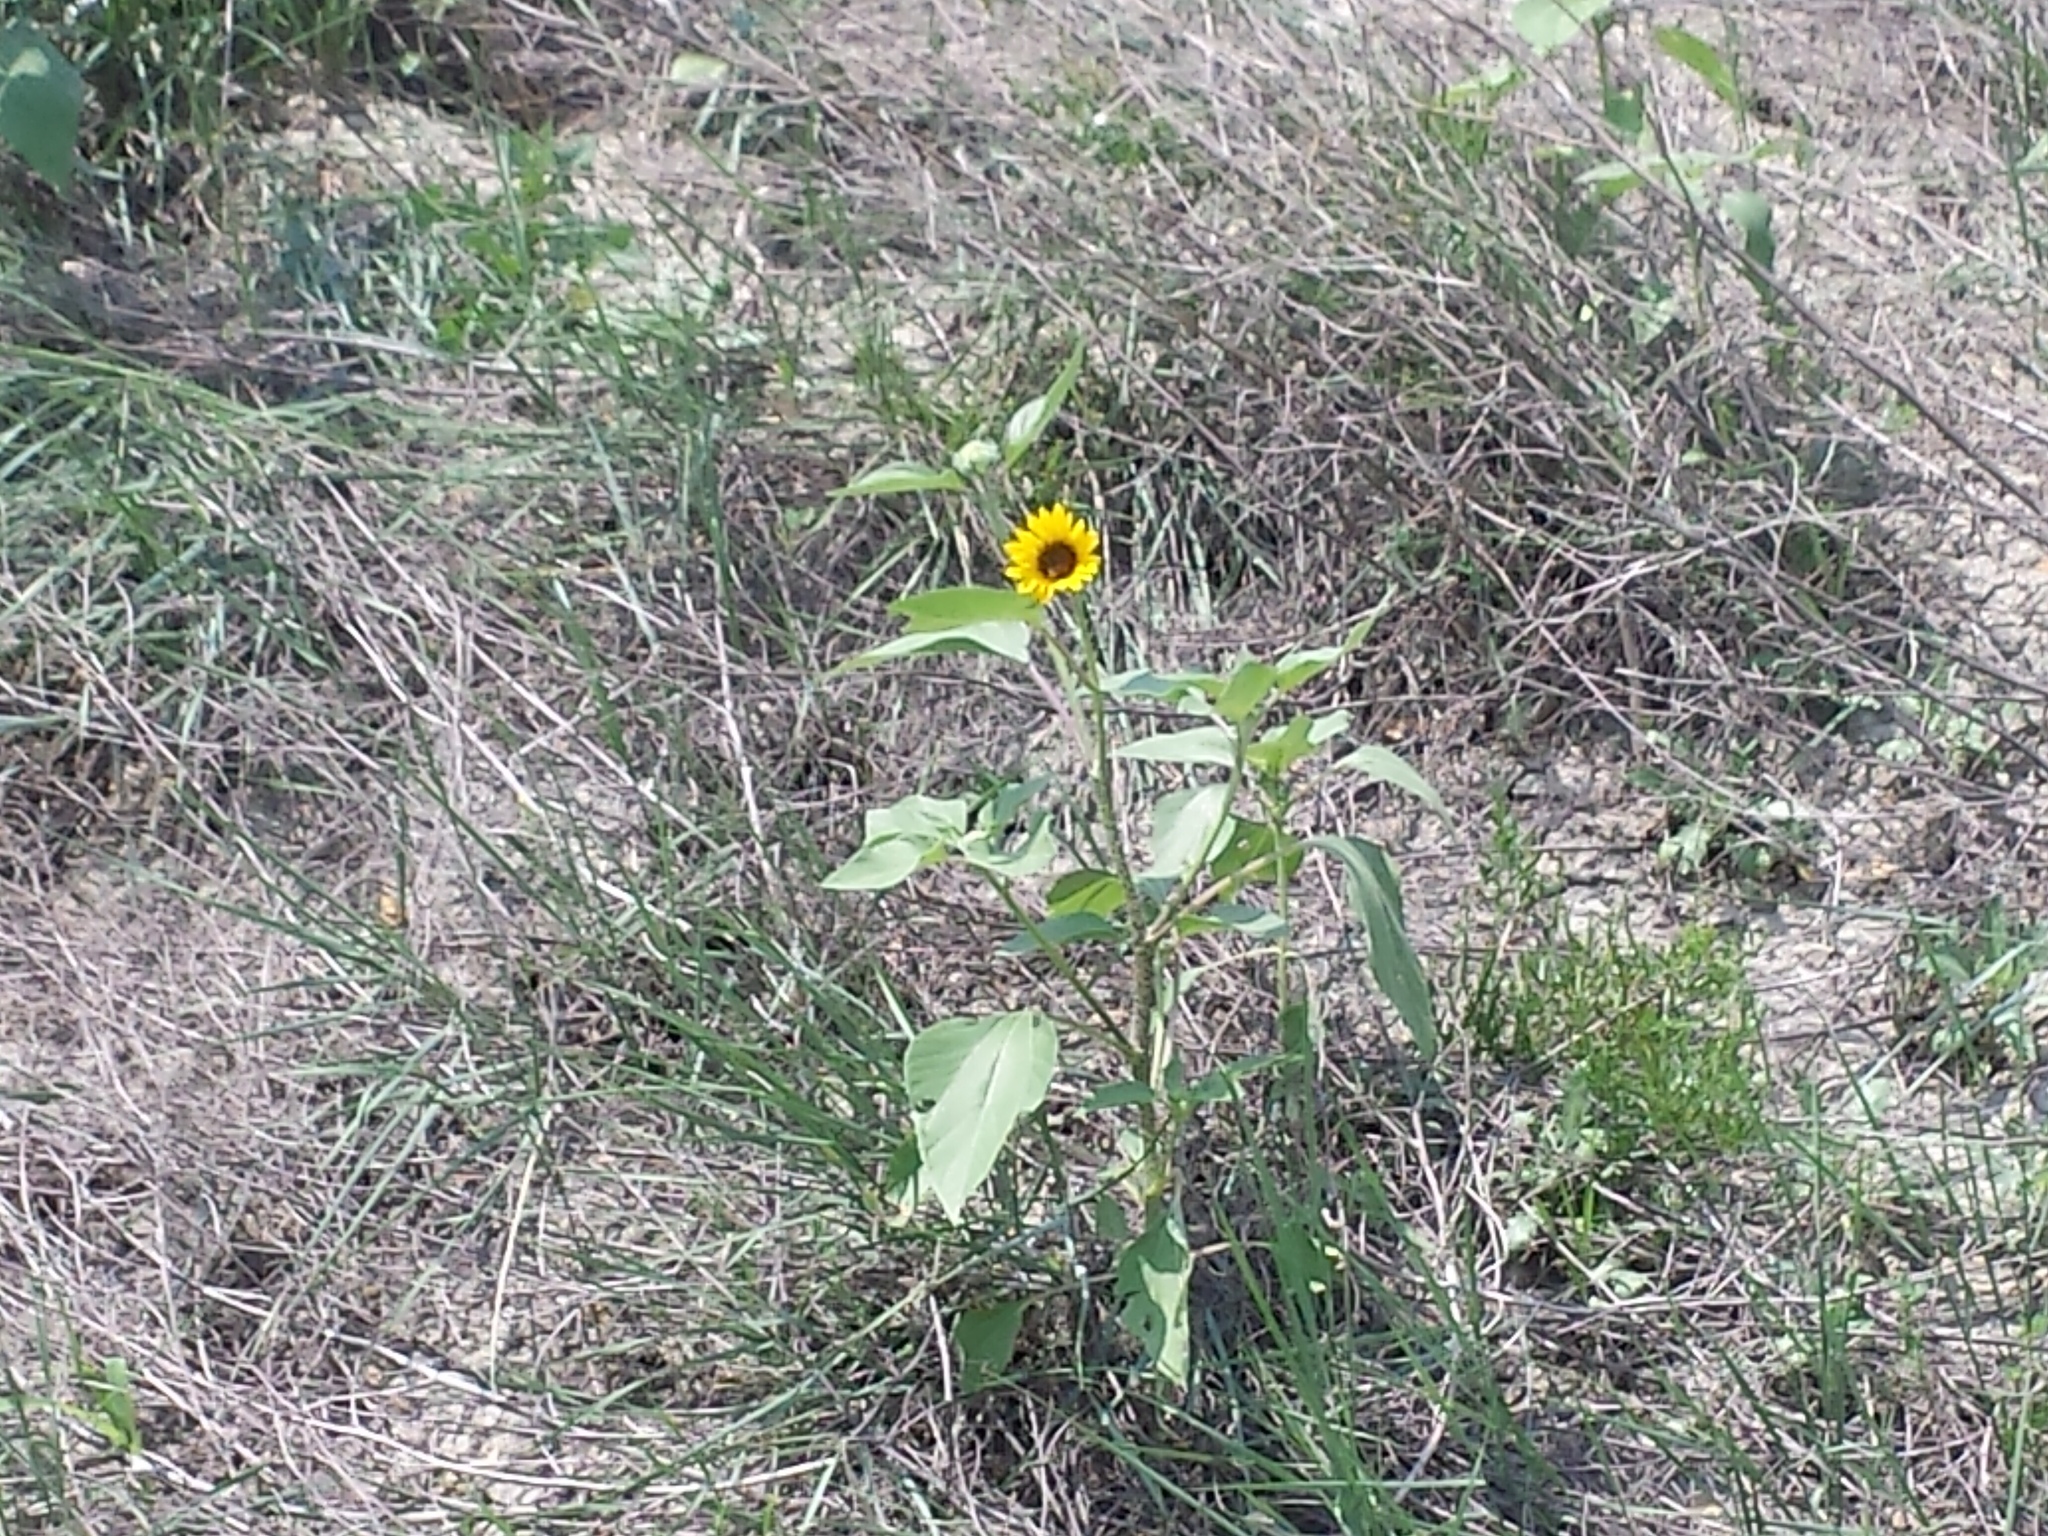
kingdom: Plantae
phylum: Tracheophyta
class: Magnoliopsida
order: Asterales
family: Asteraceae
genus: Helianthus
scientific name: Helianthus annuus
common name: Sunflower
